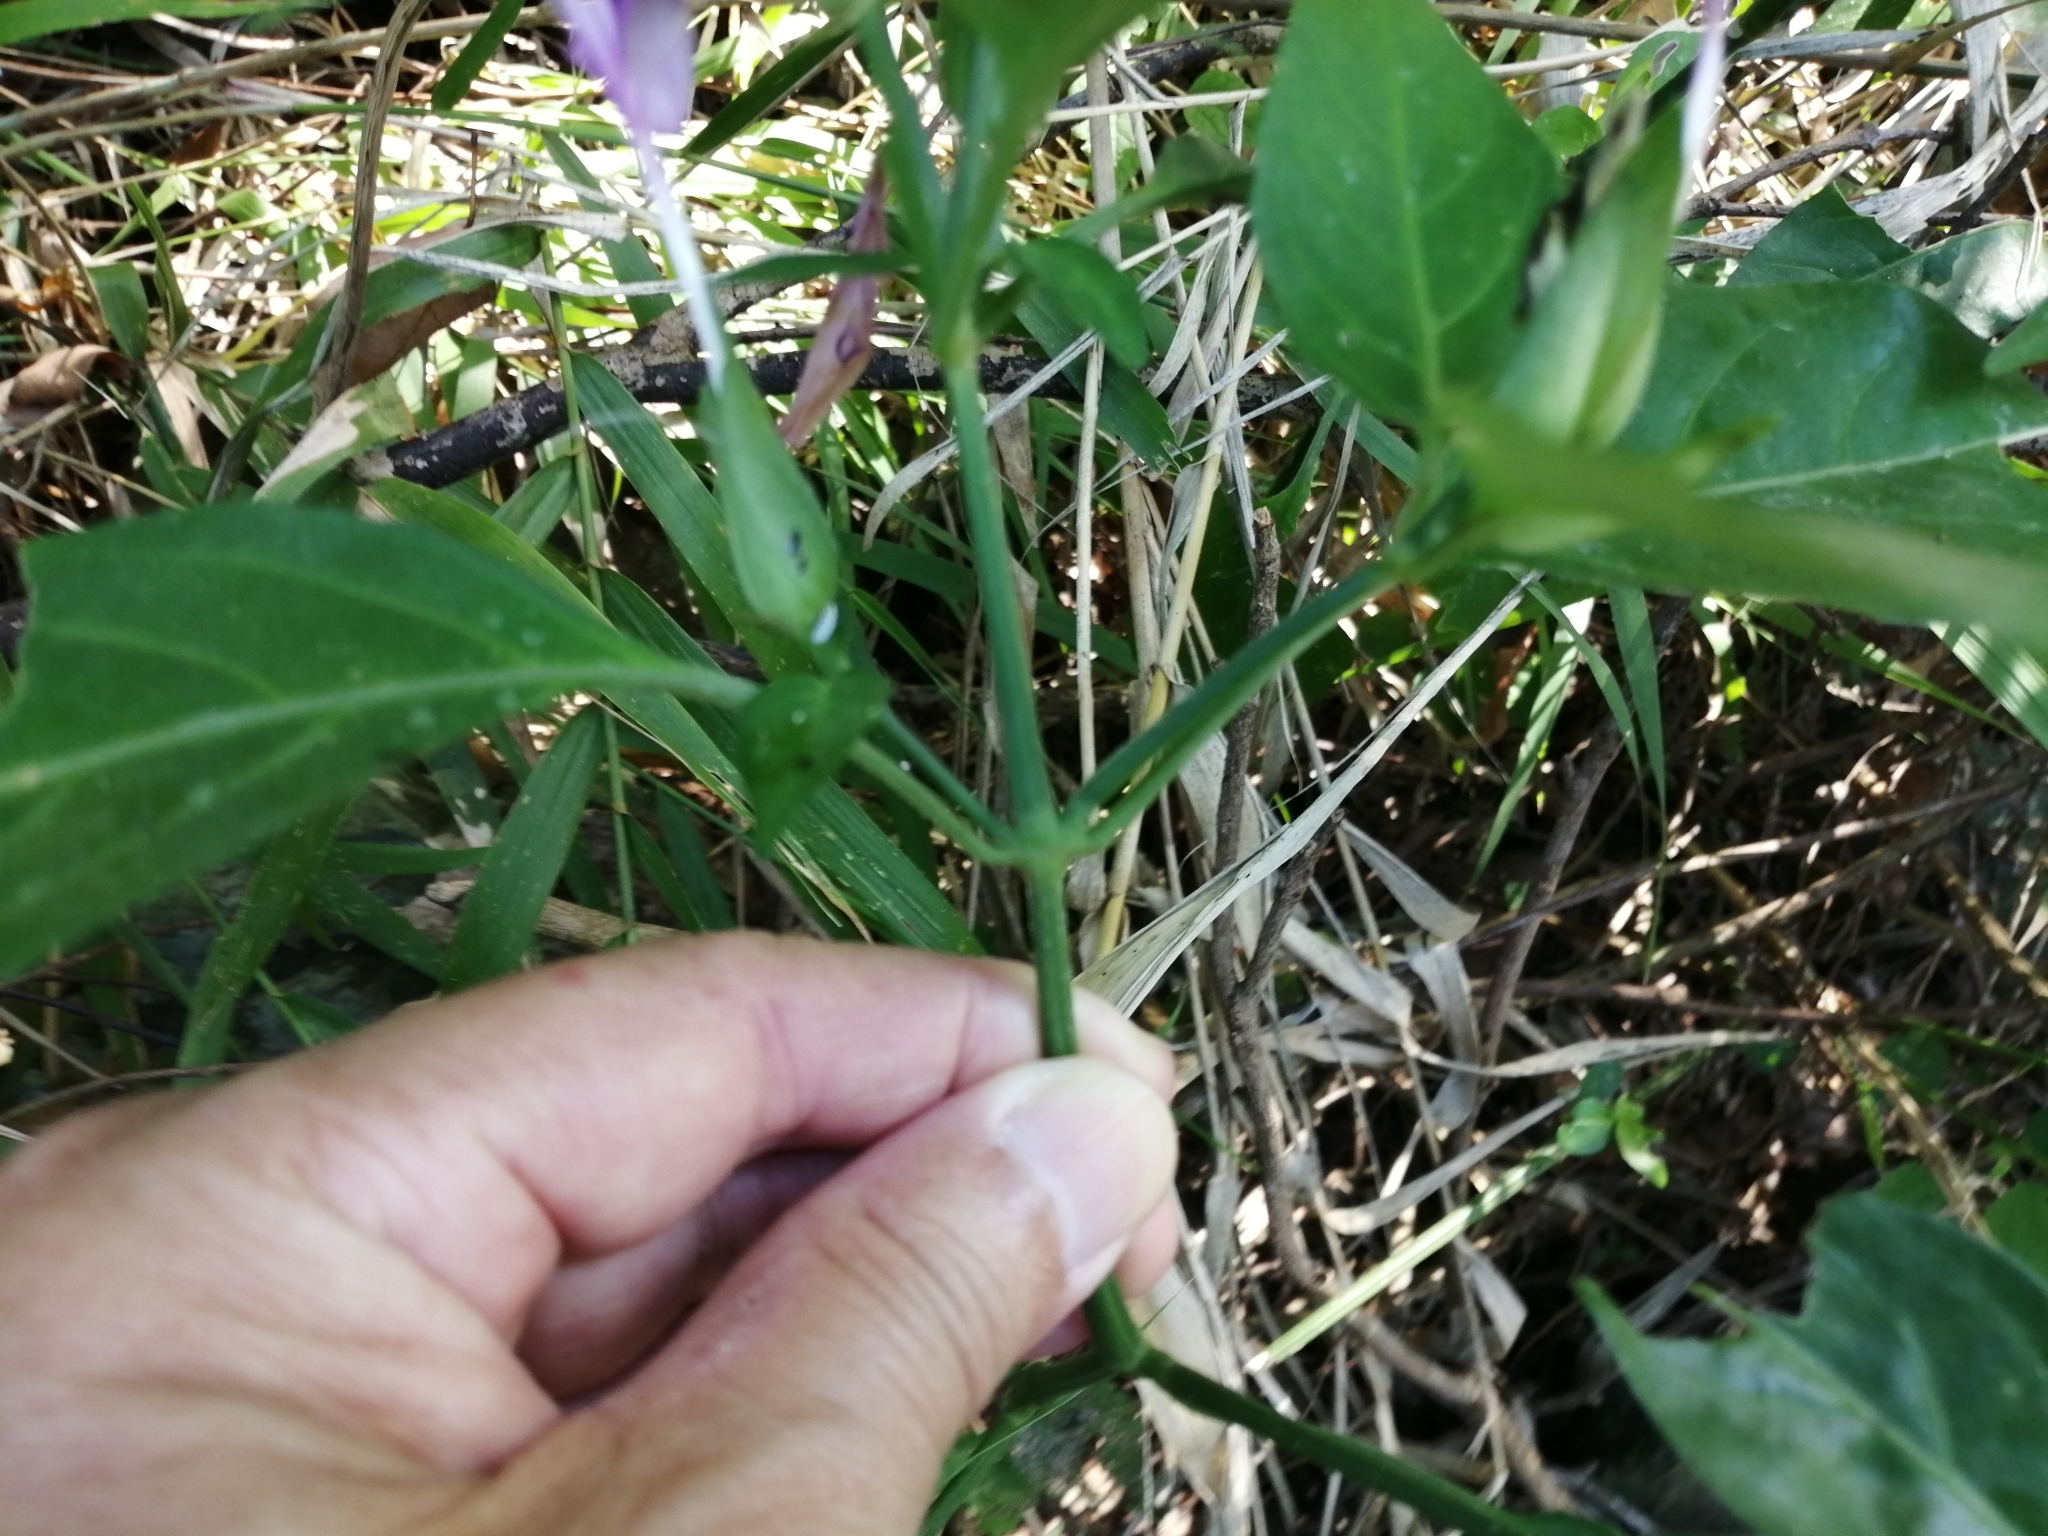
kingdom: Plantae
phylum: Tracheophyta
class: Magnoliopsida
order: Lamiales
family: Acanthaceae
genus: Dicliptera
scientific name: Dicliptera tinctoria
